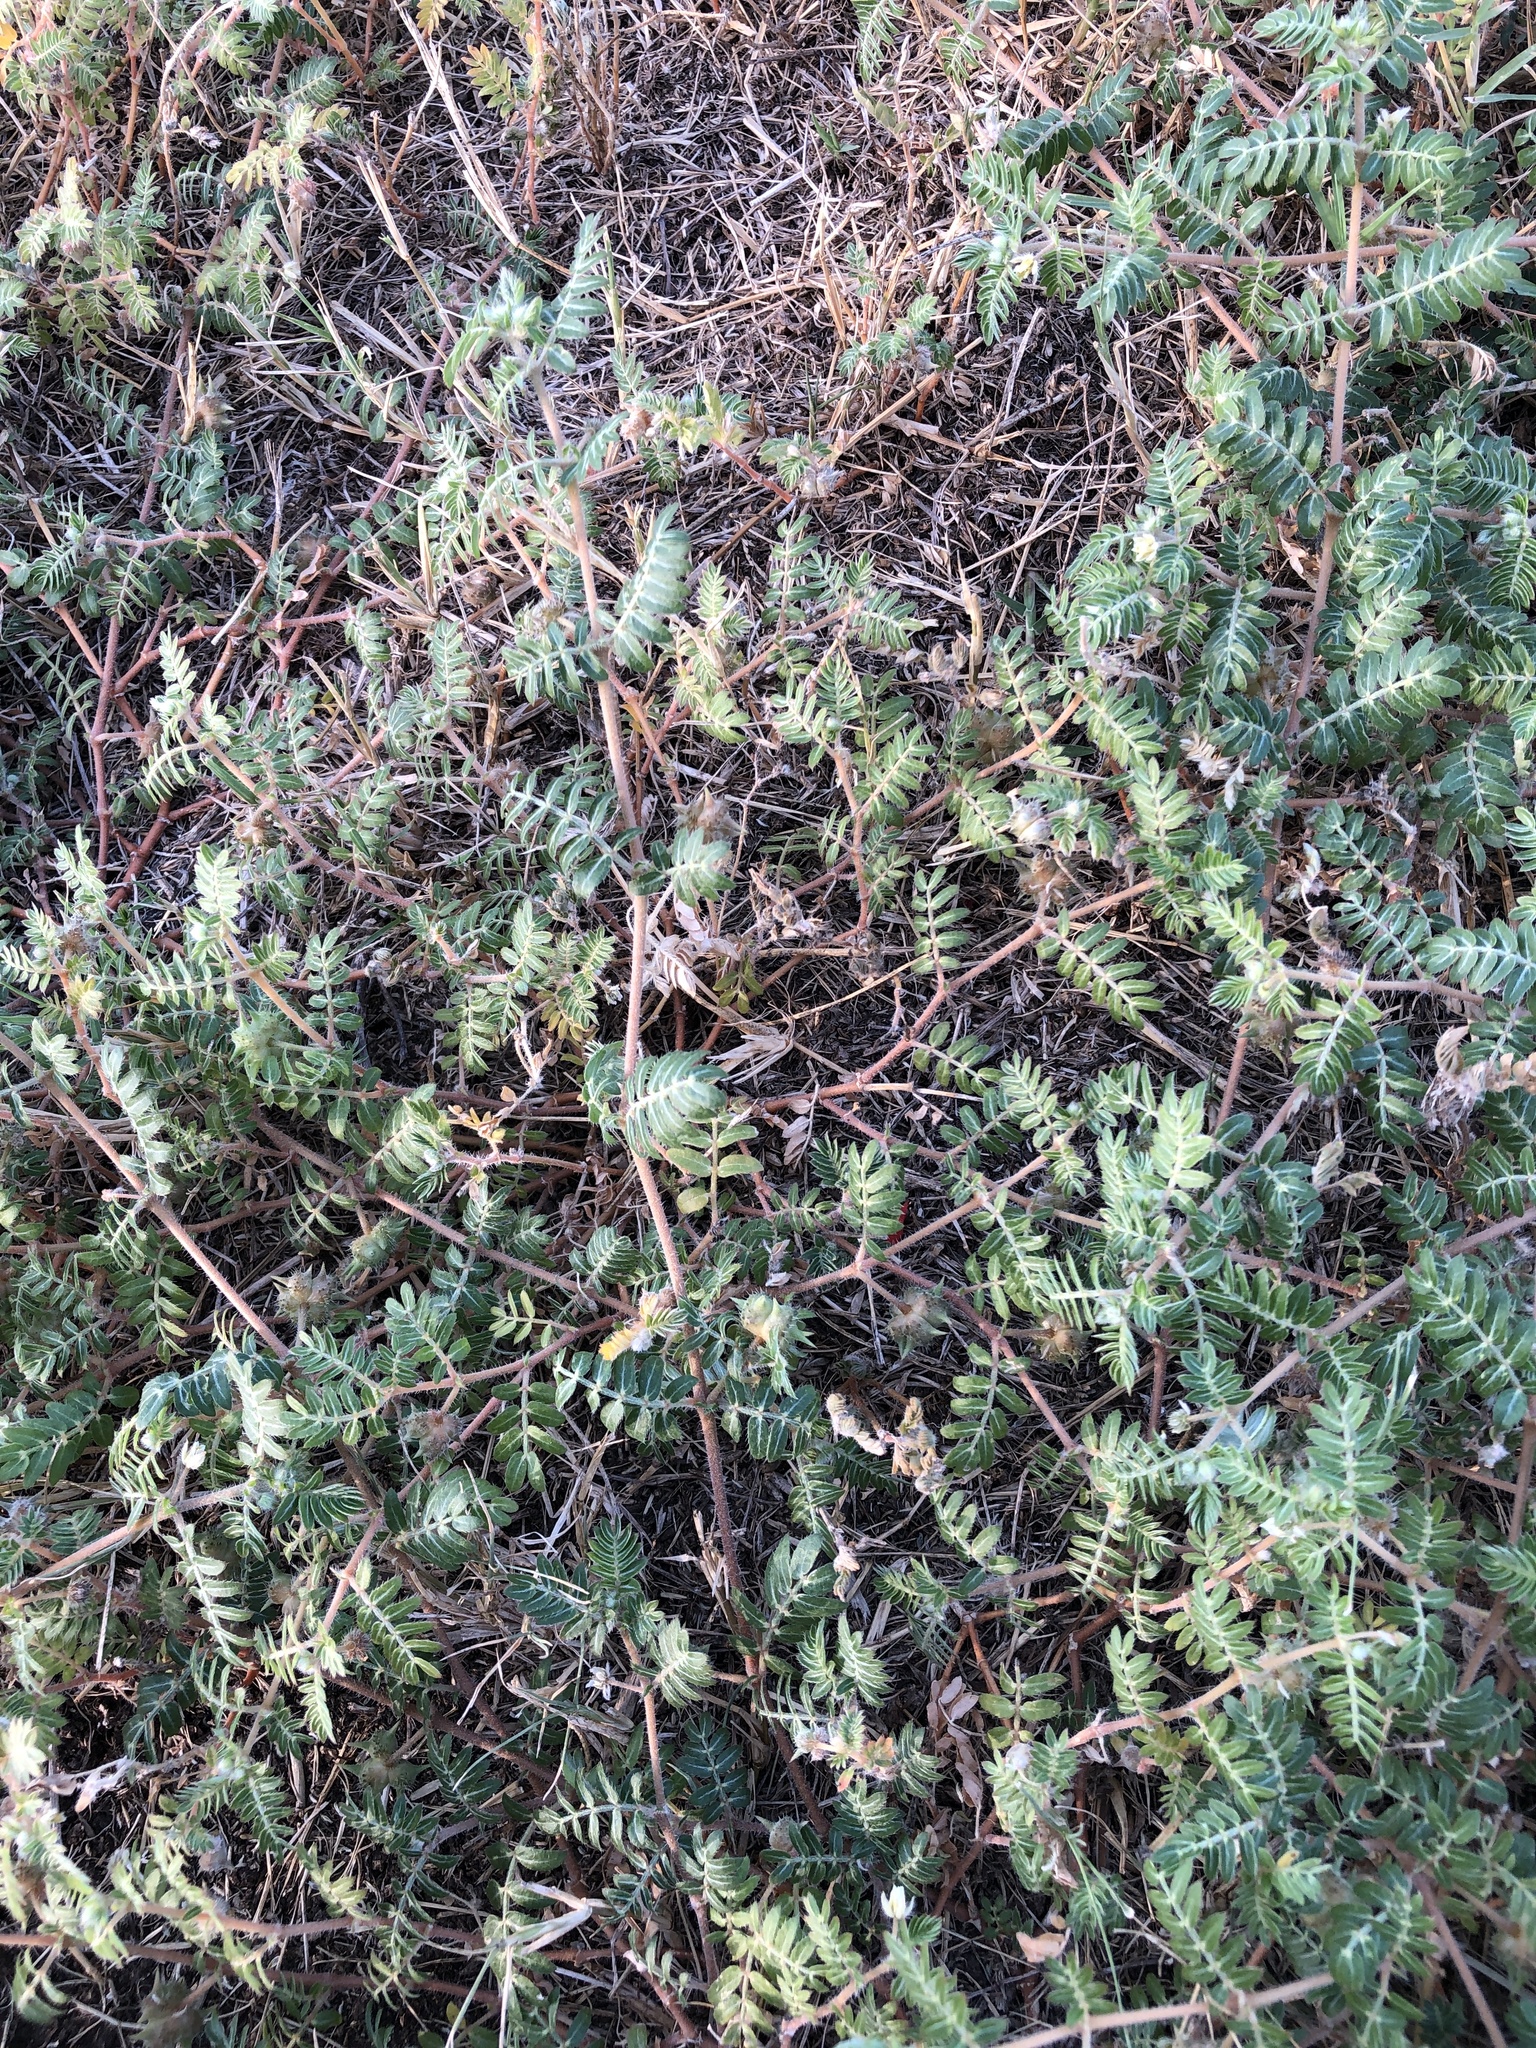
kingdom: Plantae
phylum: Tracheophyta
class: Magnoliopsida
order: Zygophyllales
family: Zygophyllaceae
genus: Tribulus
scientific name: Tribulus terrestris
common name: Puncturevine
